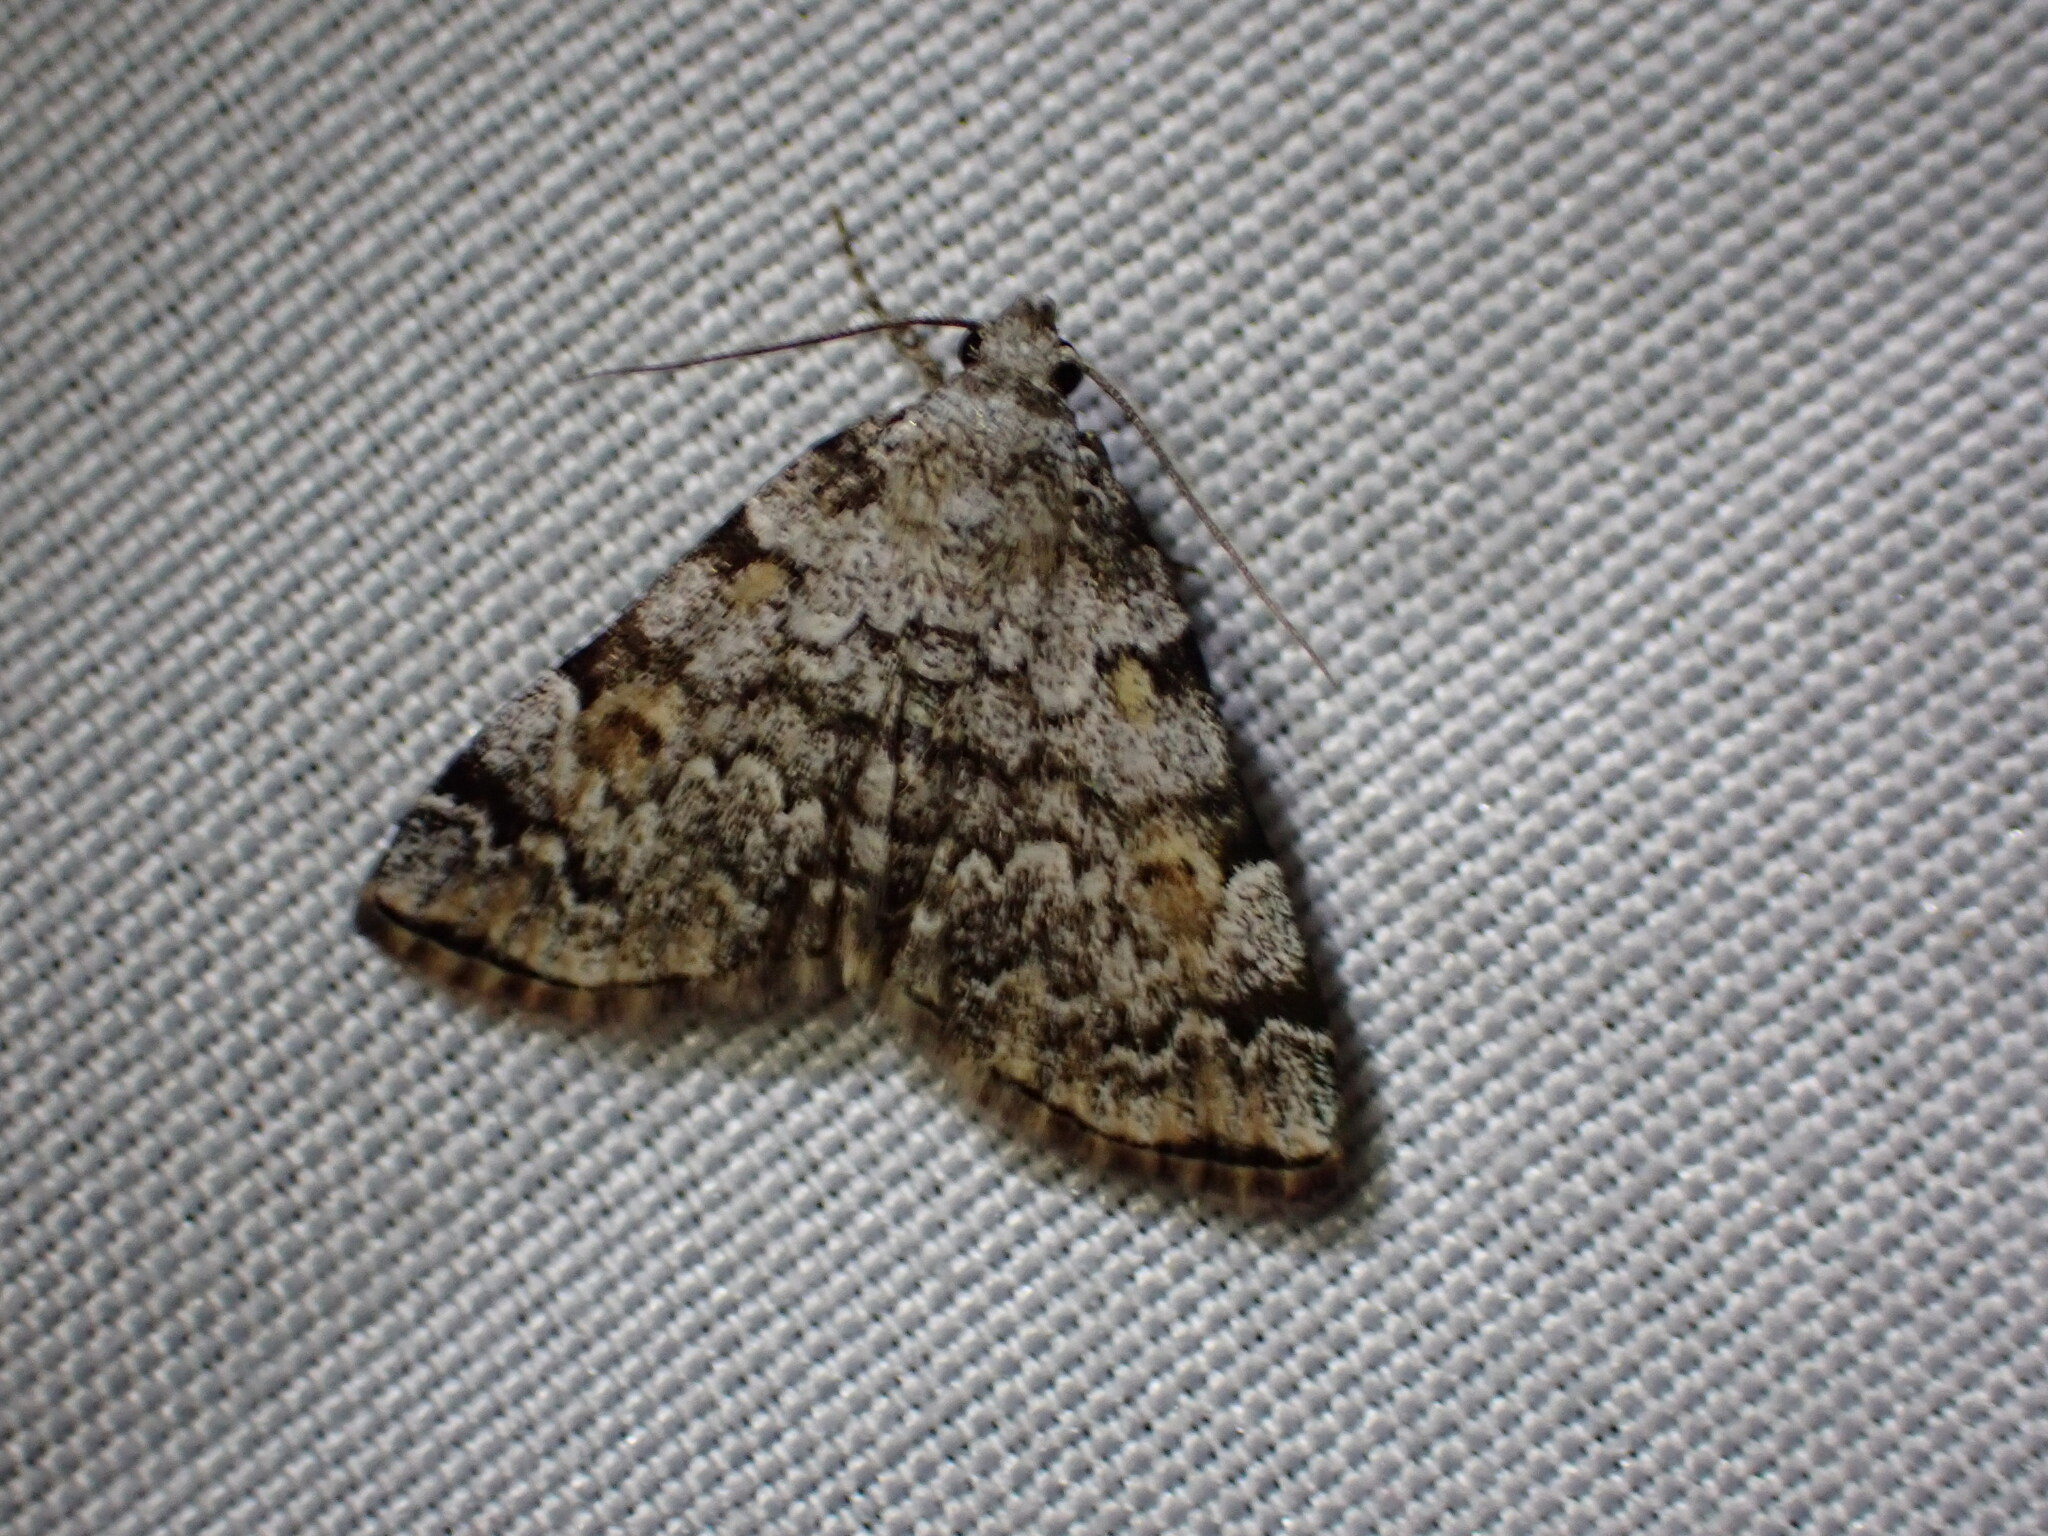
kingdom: Animalia
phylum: Arthropoda
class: Insecta
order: Lepidoptera
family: Erebidae
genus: Idia
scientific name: Idia americalis
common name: American idia moth
